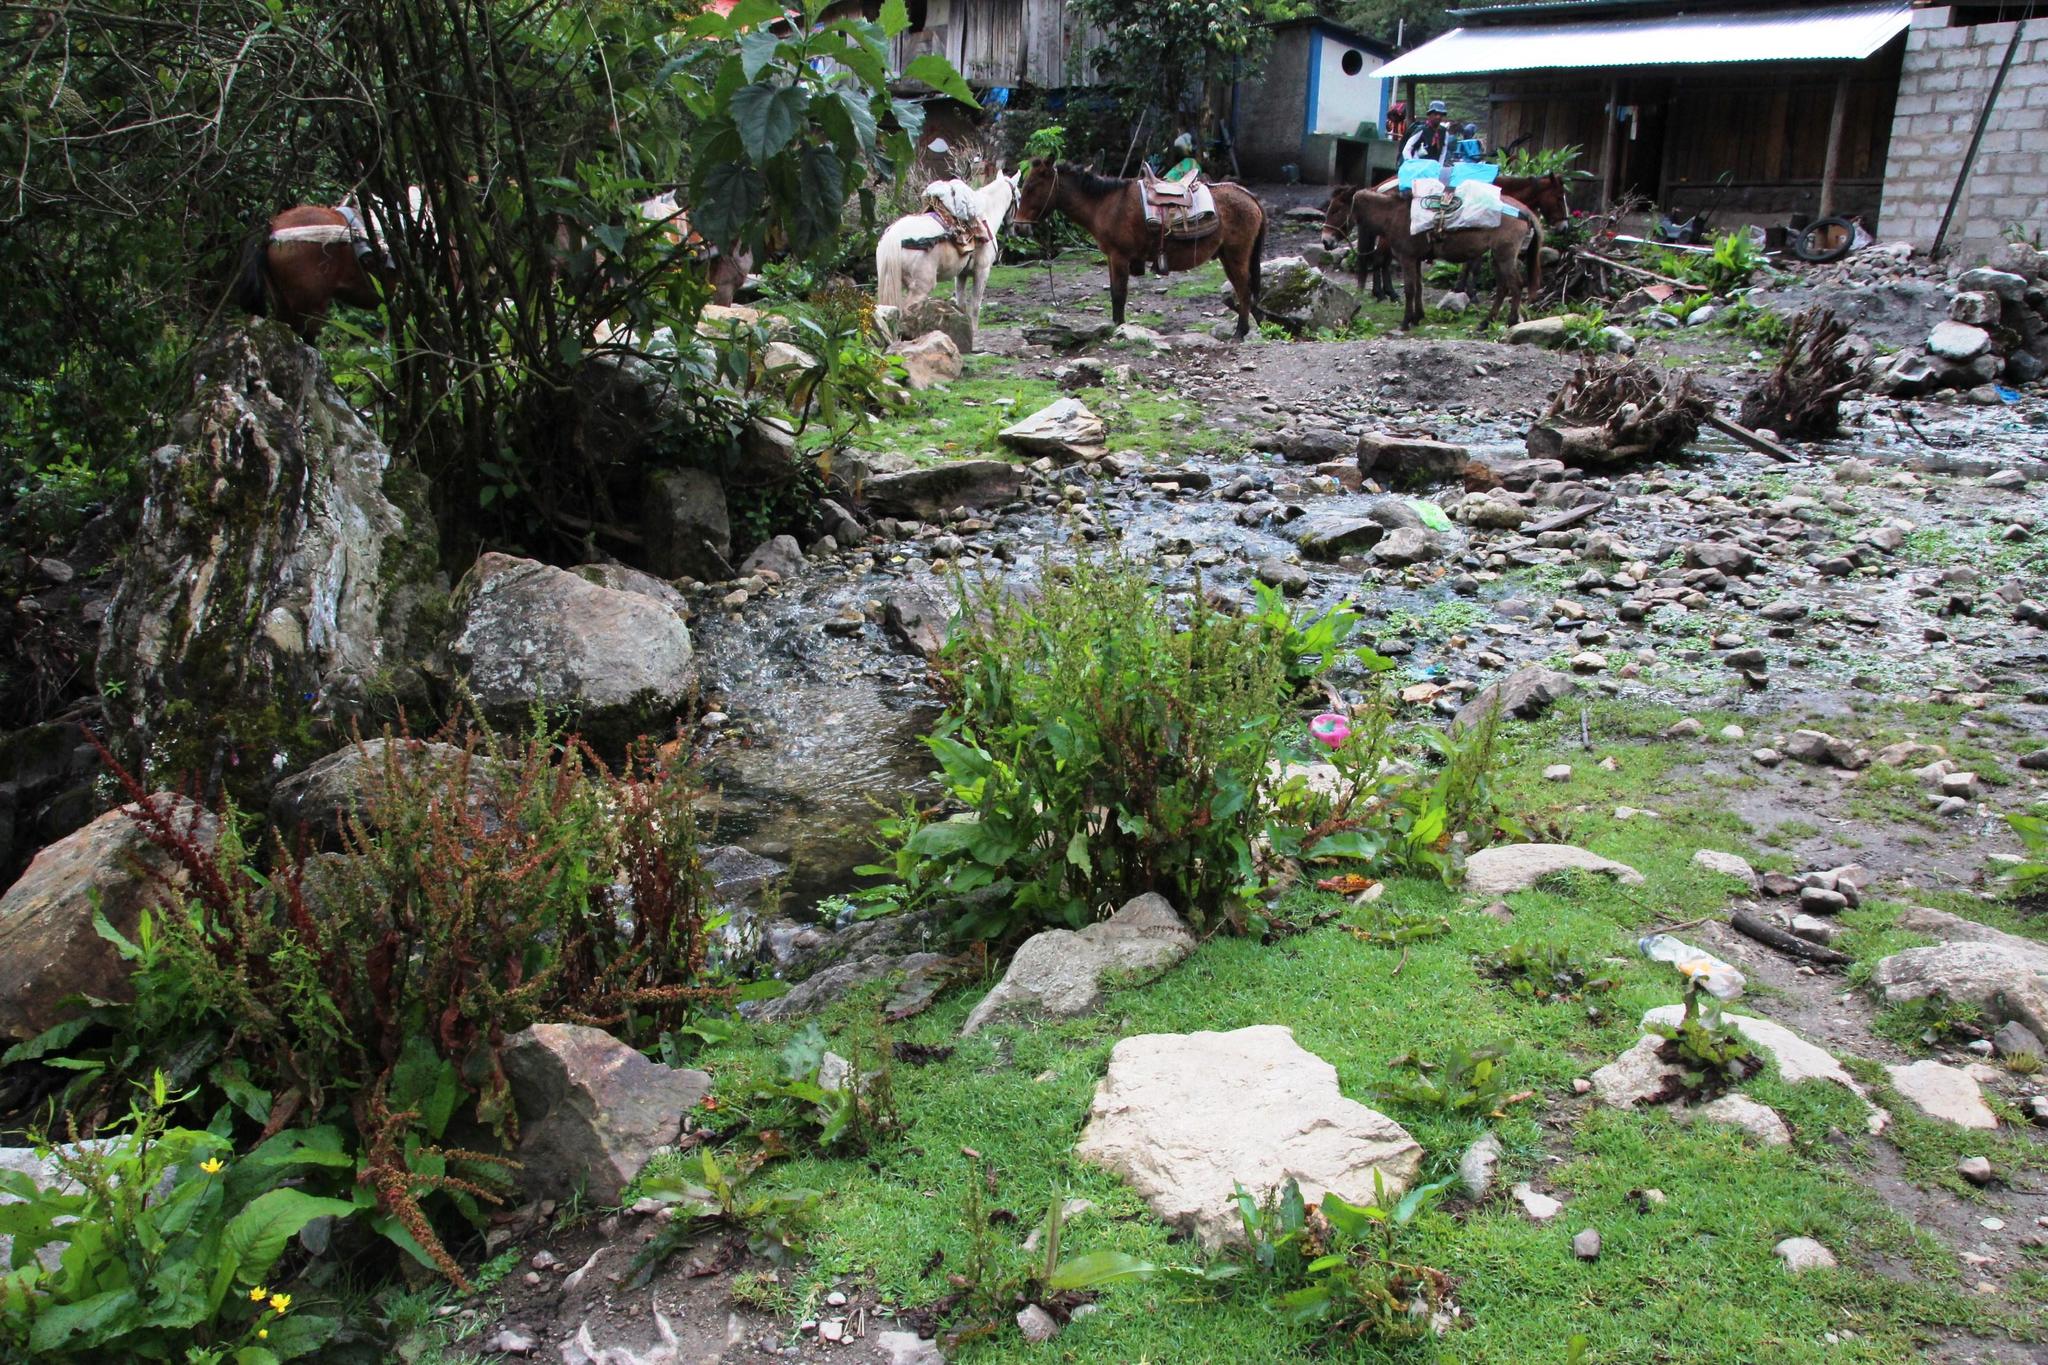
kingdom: Plantae
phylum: Tracheophyta
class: Magnoliopsida
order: Caryophyllales
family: Polygonaceae
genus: Rumex
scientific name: Rumex obtusifolius
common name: Bitter dock
